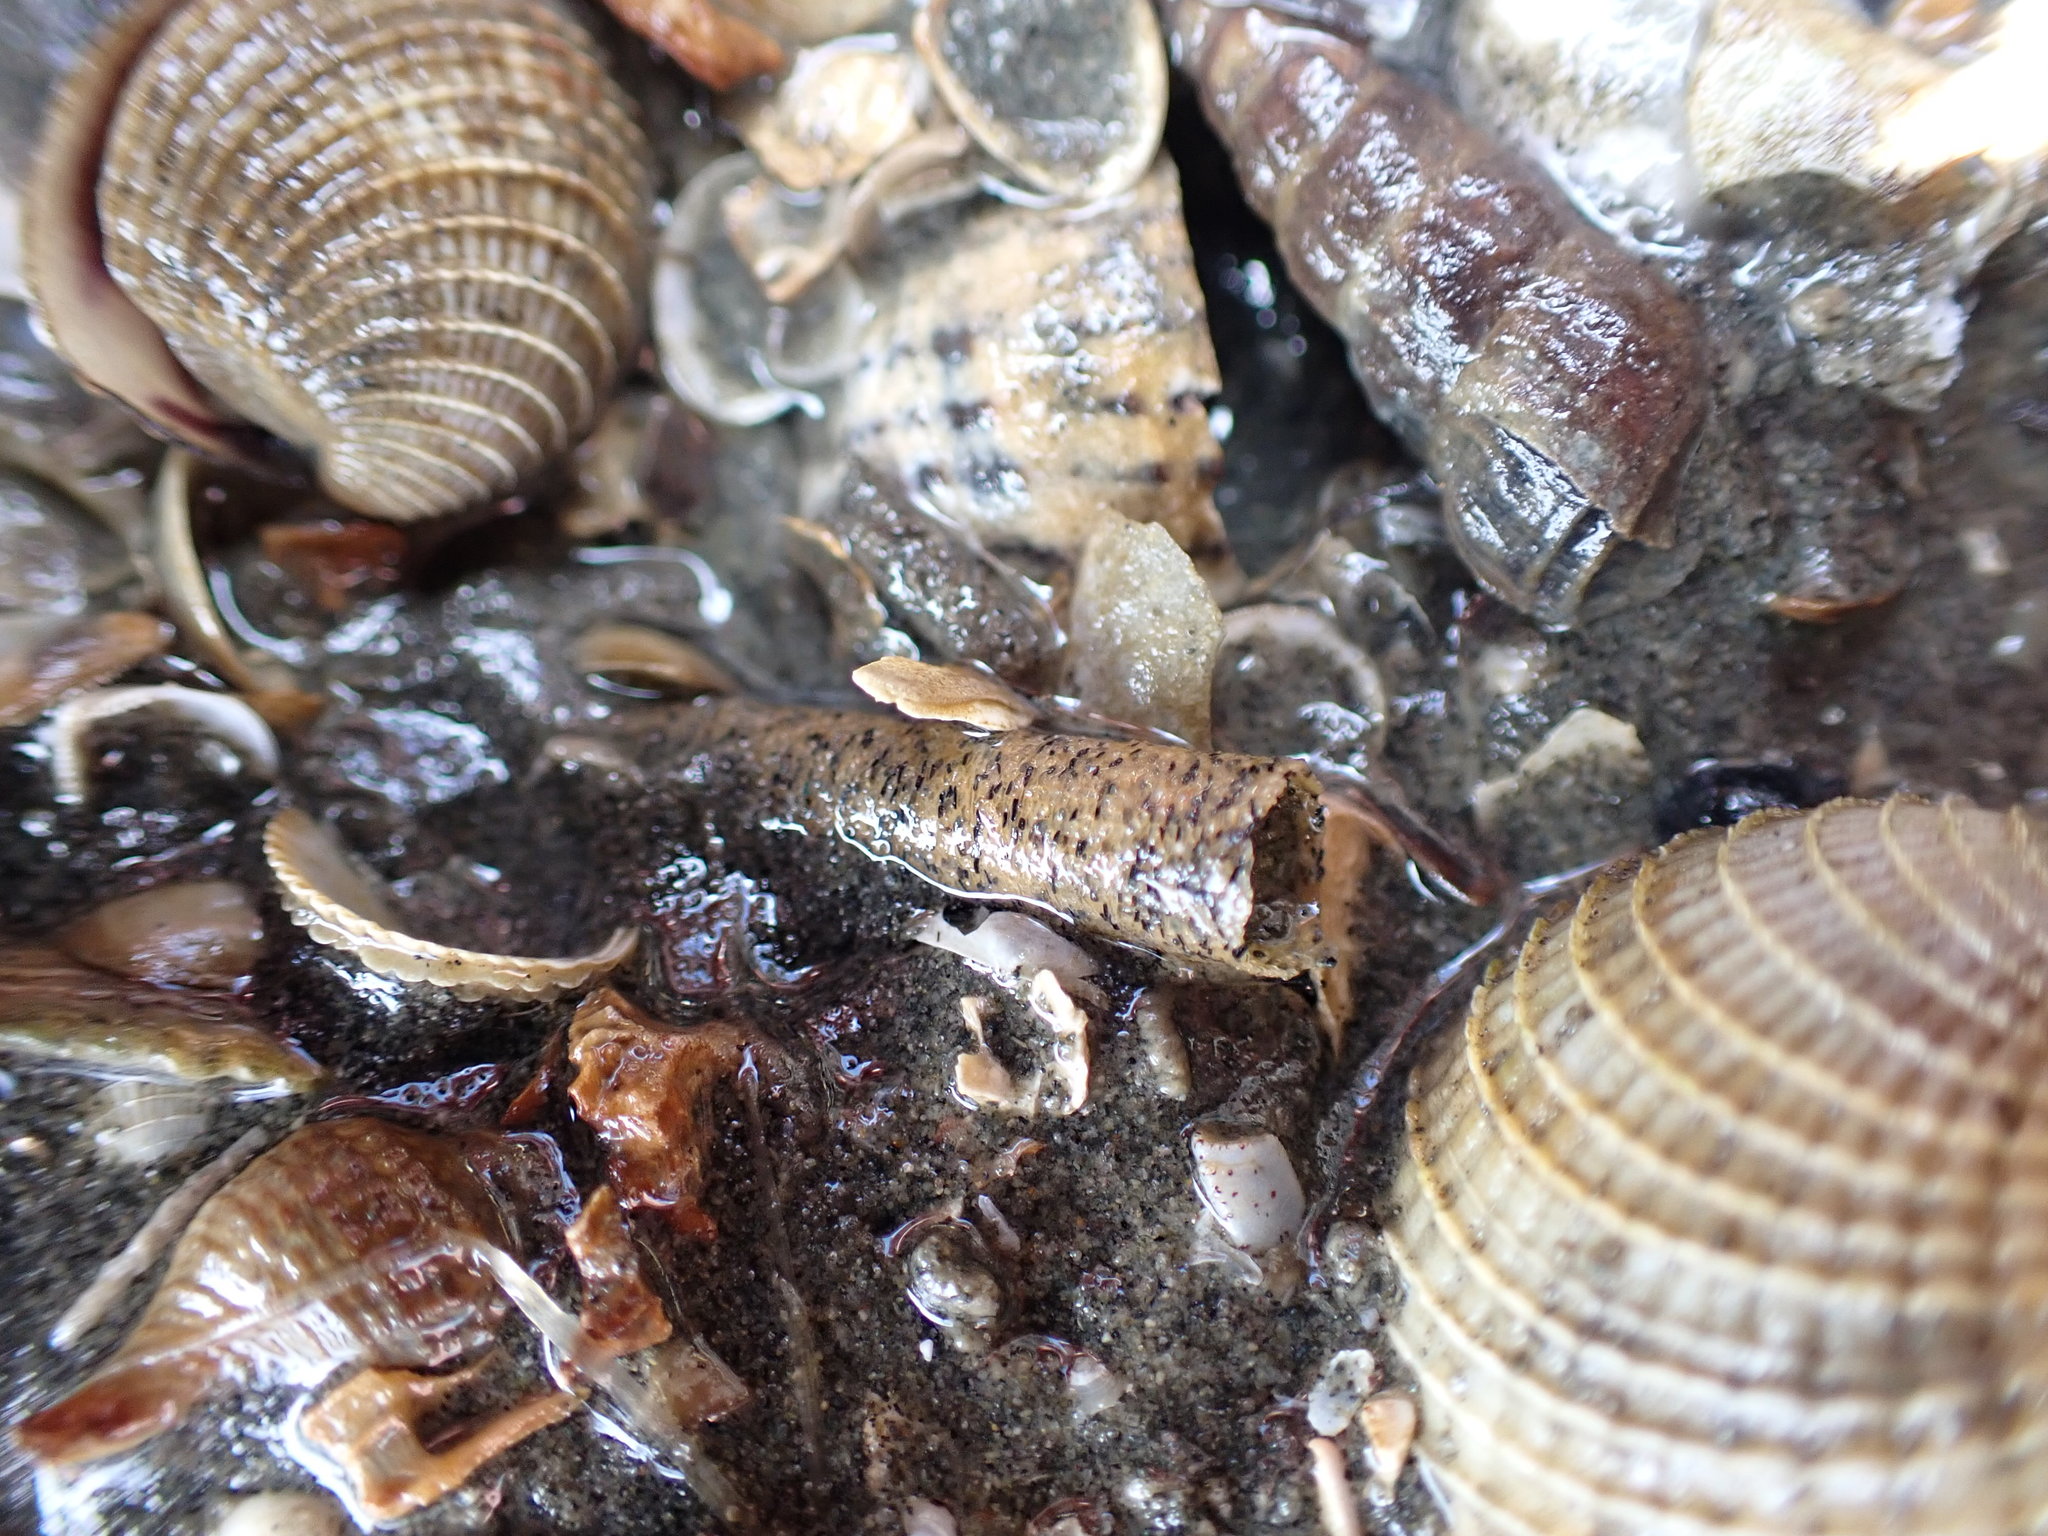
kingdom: Animalia
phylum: Annelida
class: Polychaeta
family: Pectinariidae
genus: Lagis
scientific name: Lagis australis
